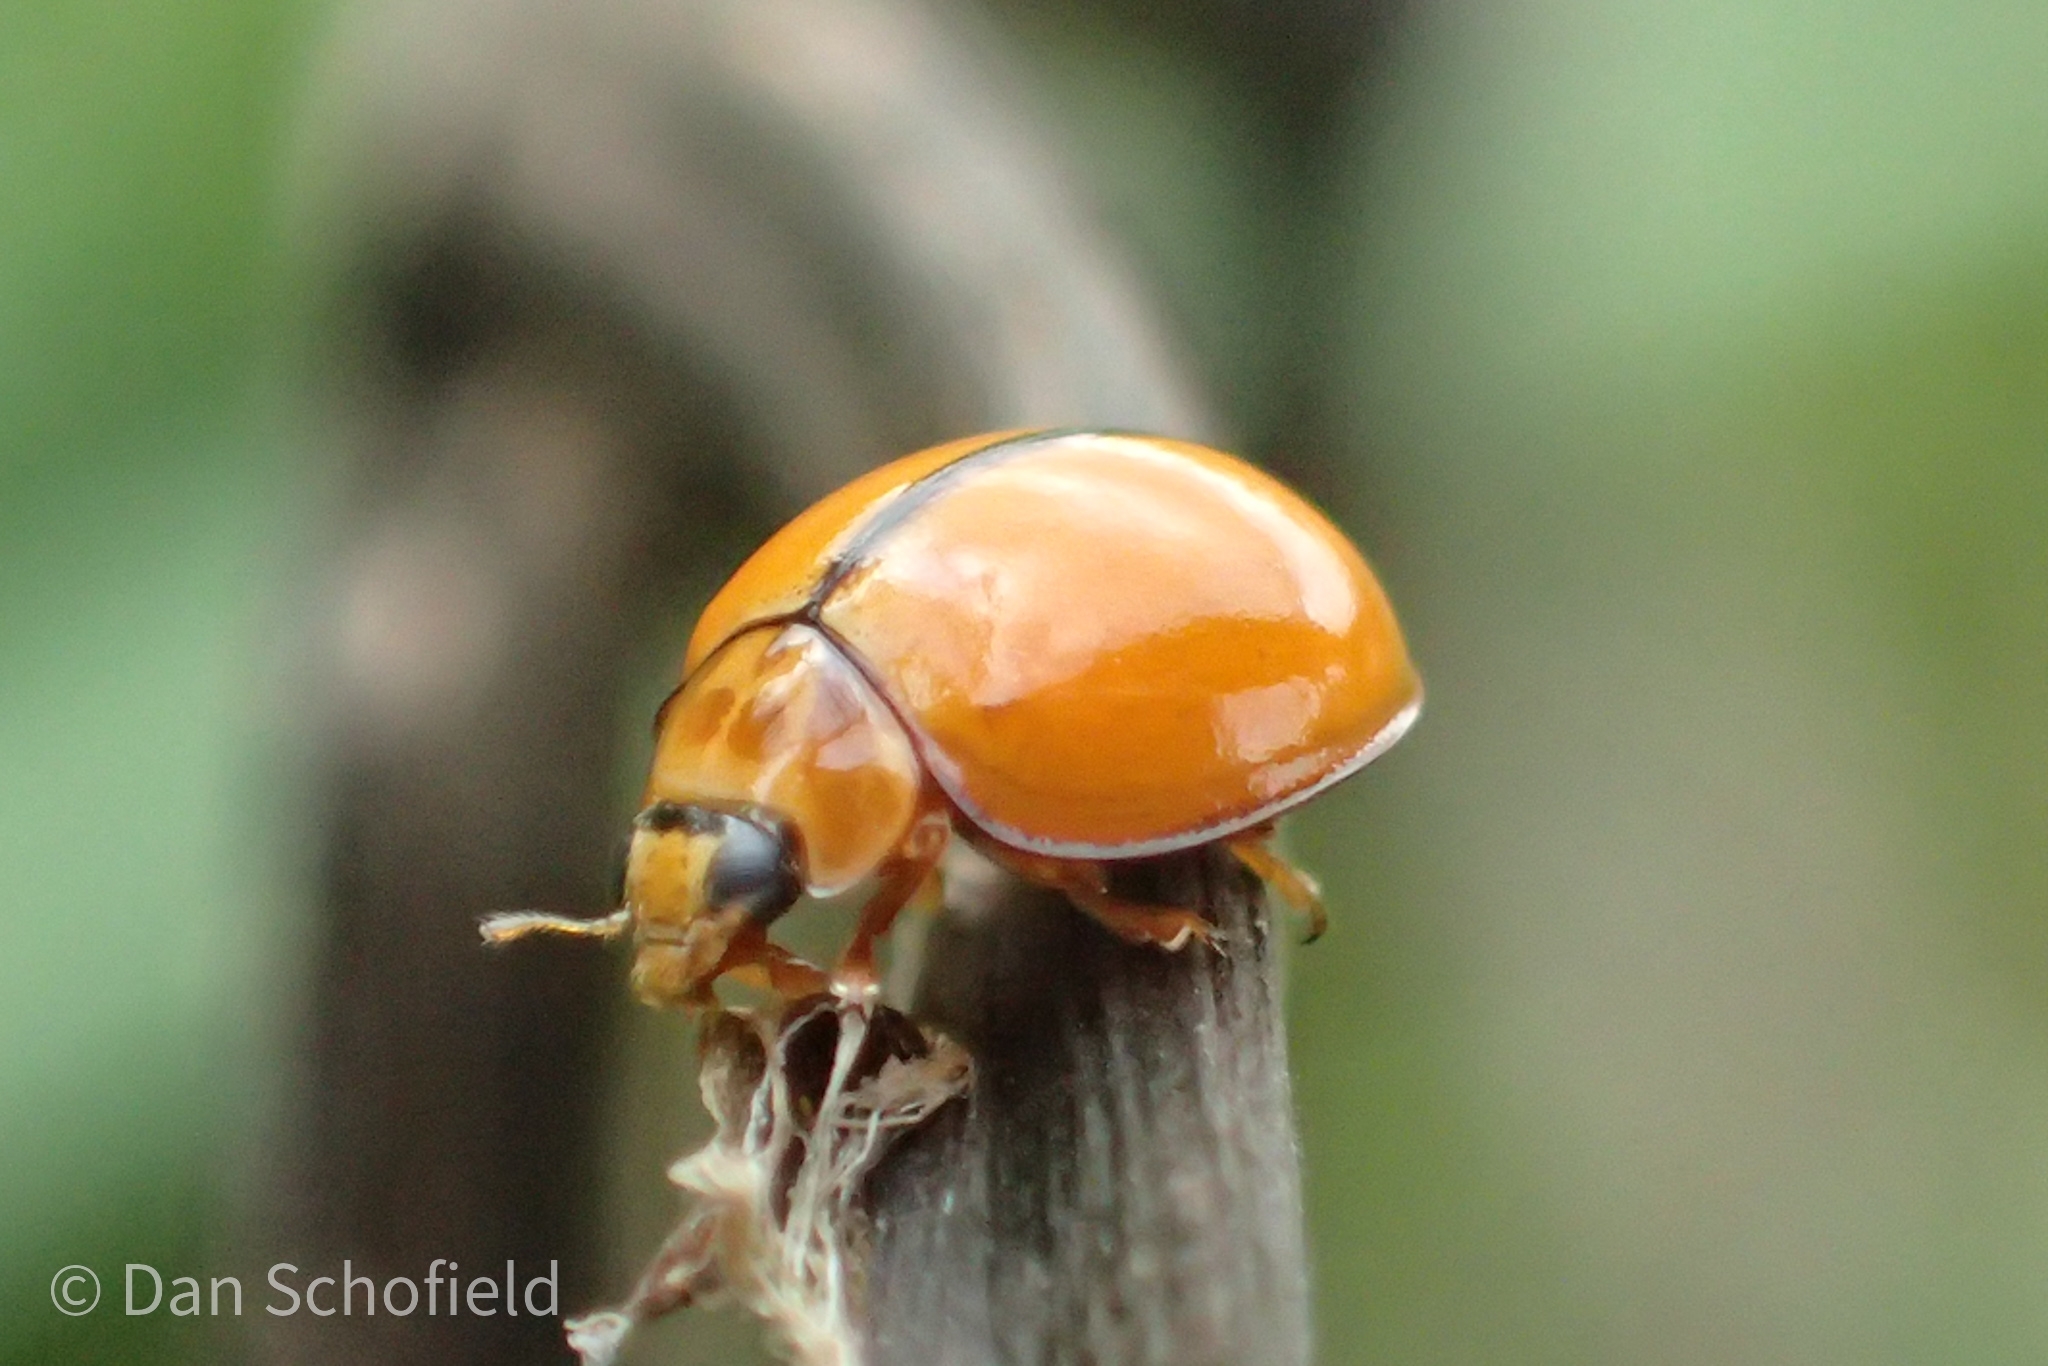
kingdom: Animalia
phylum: Arthropoda
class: Insecta
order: Coleoptera
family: Coccinellidae
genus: Micraspis
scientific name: Micraspis discolor
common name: Lady beetle
